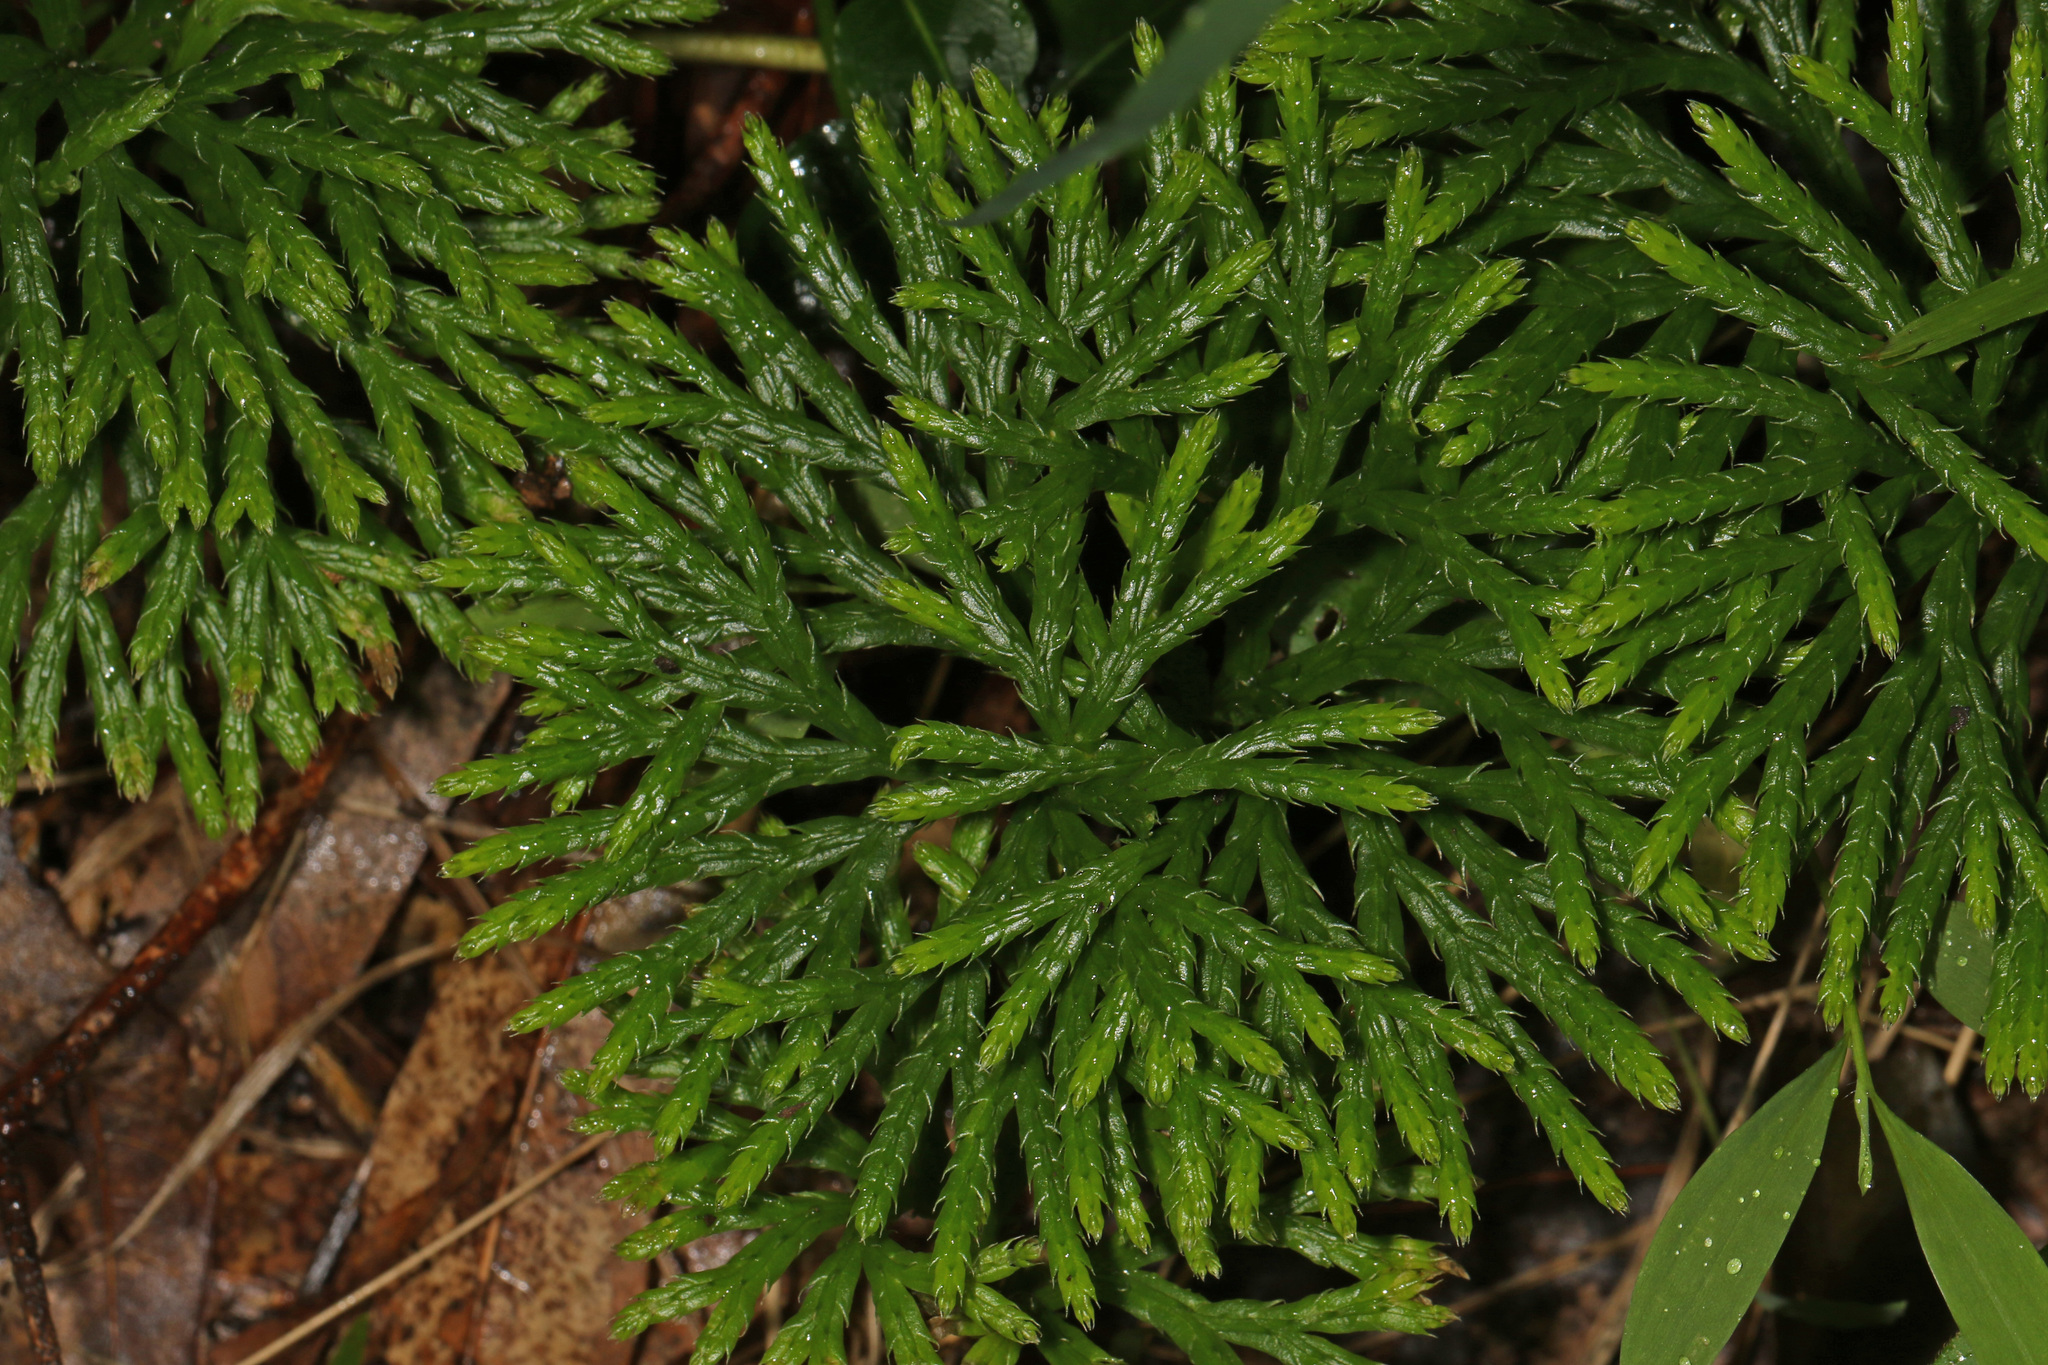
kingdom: Plantae
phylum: Tracheophyta
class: Lycopodiopsida
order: Lycopodiales
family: Lycopodiaceae
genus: Diphasiastrum
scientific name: Diphasiastrum digitatum
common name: Southern running-pine
